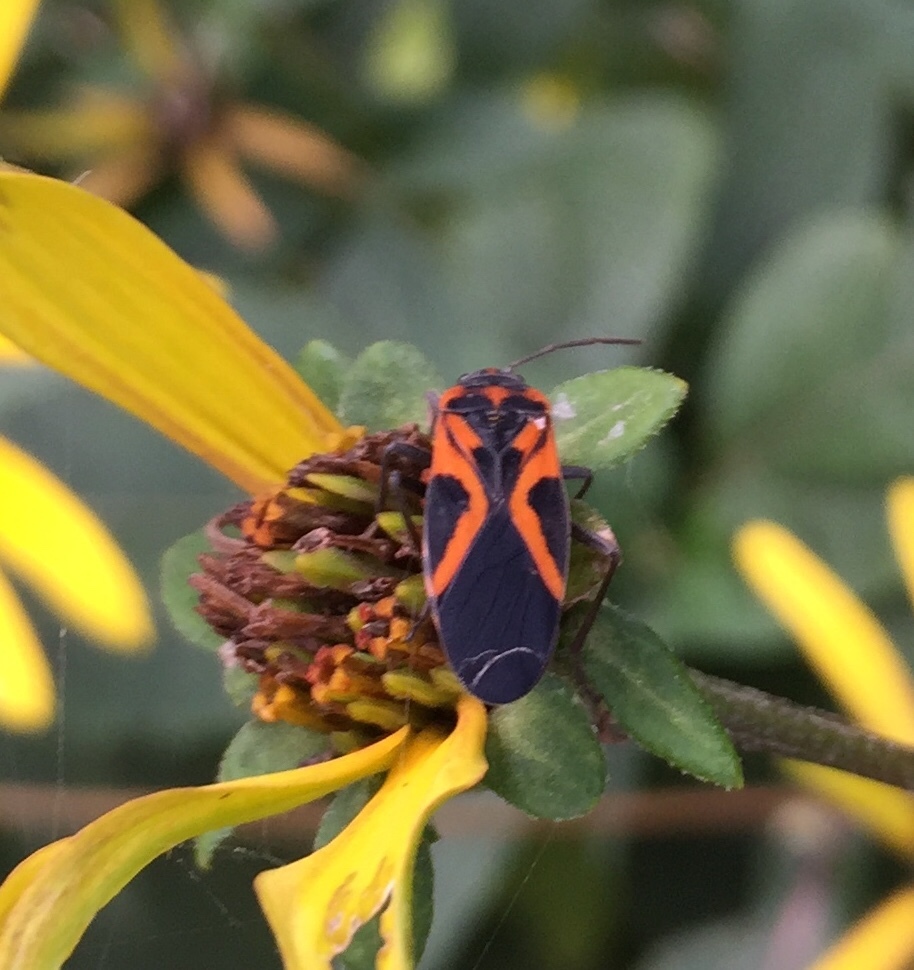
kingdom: Animalia
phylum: Arthropoda
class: Insecta
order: Hemiptera
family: Lygaeidae
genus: Lygaeus
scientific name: Lygaeus turcicus
